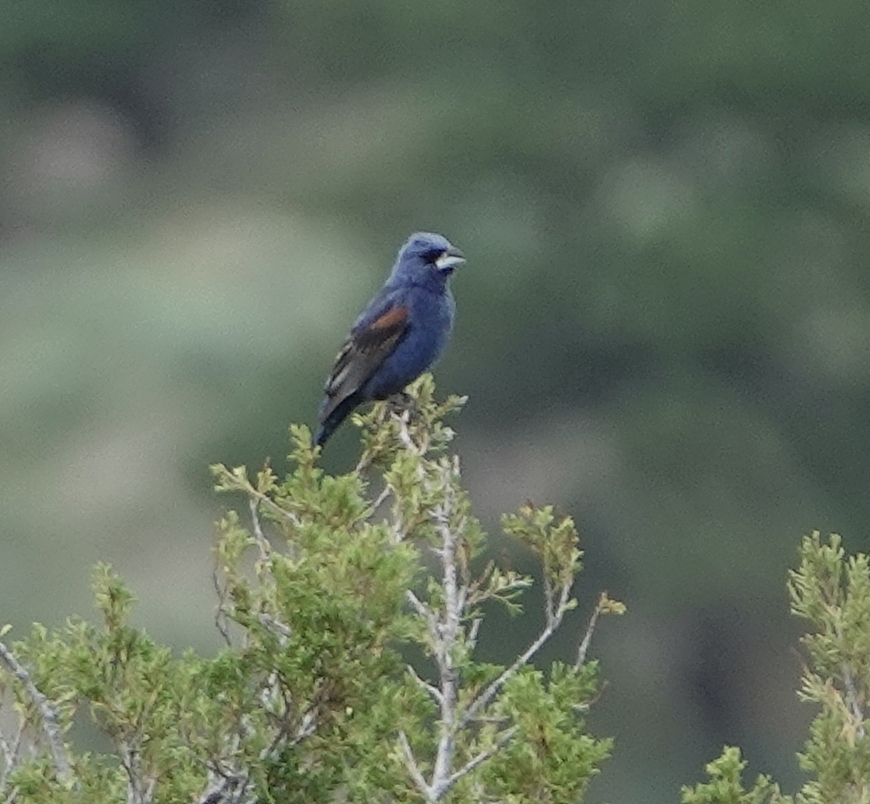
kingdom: Animalia
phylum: Chordata
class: Aves
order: Passeriformes
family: Cardinalidae
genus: Passerina
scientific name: Passerina caerulea
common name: Blue grosbeak
